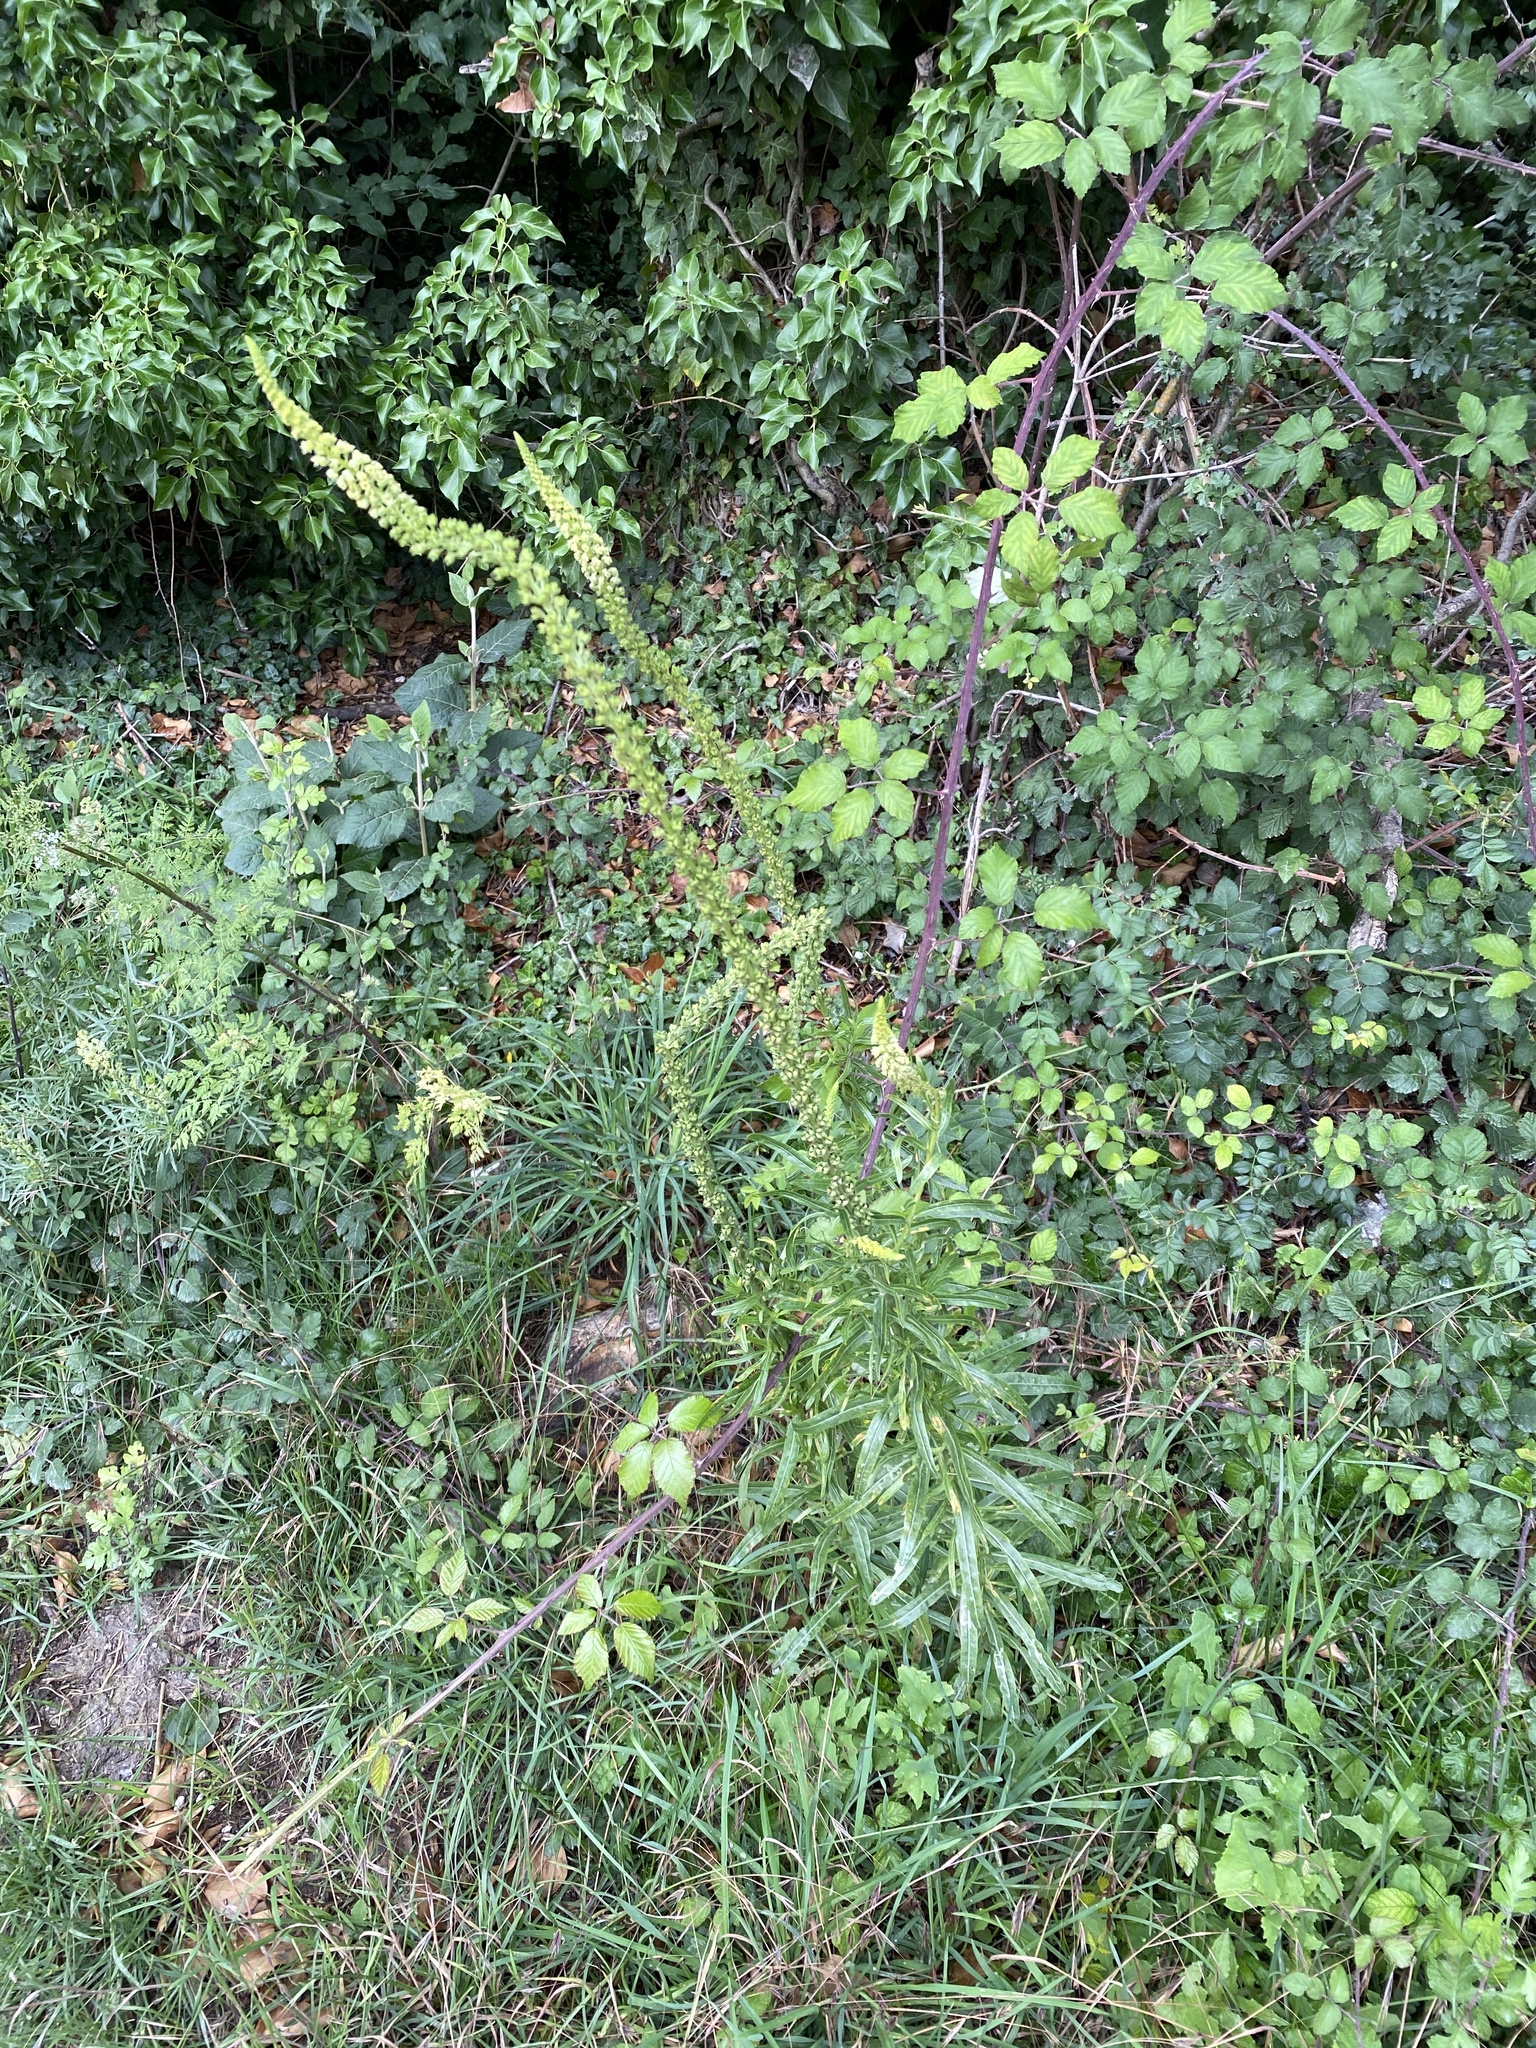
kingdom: Plantae
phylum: Tracheophyta
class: Magnoliopsida
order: Brassicales
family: Resedaceae
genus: Reseda
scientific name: Reseda luteola
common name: Weld
